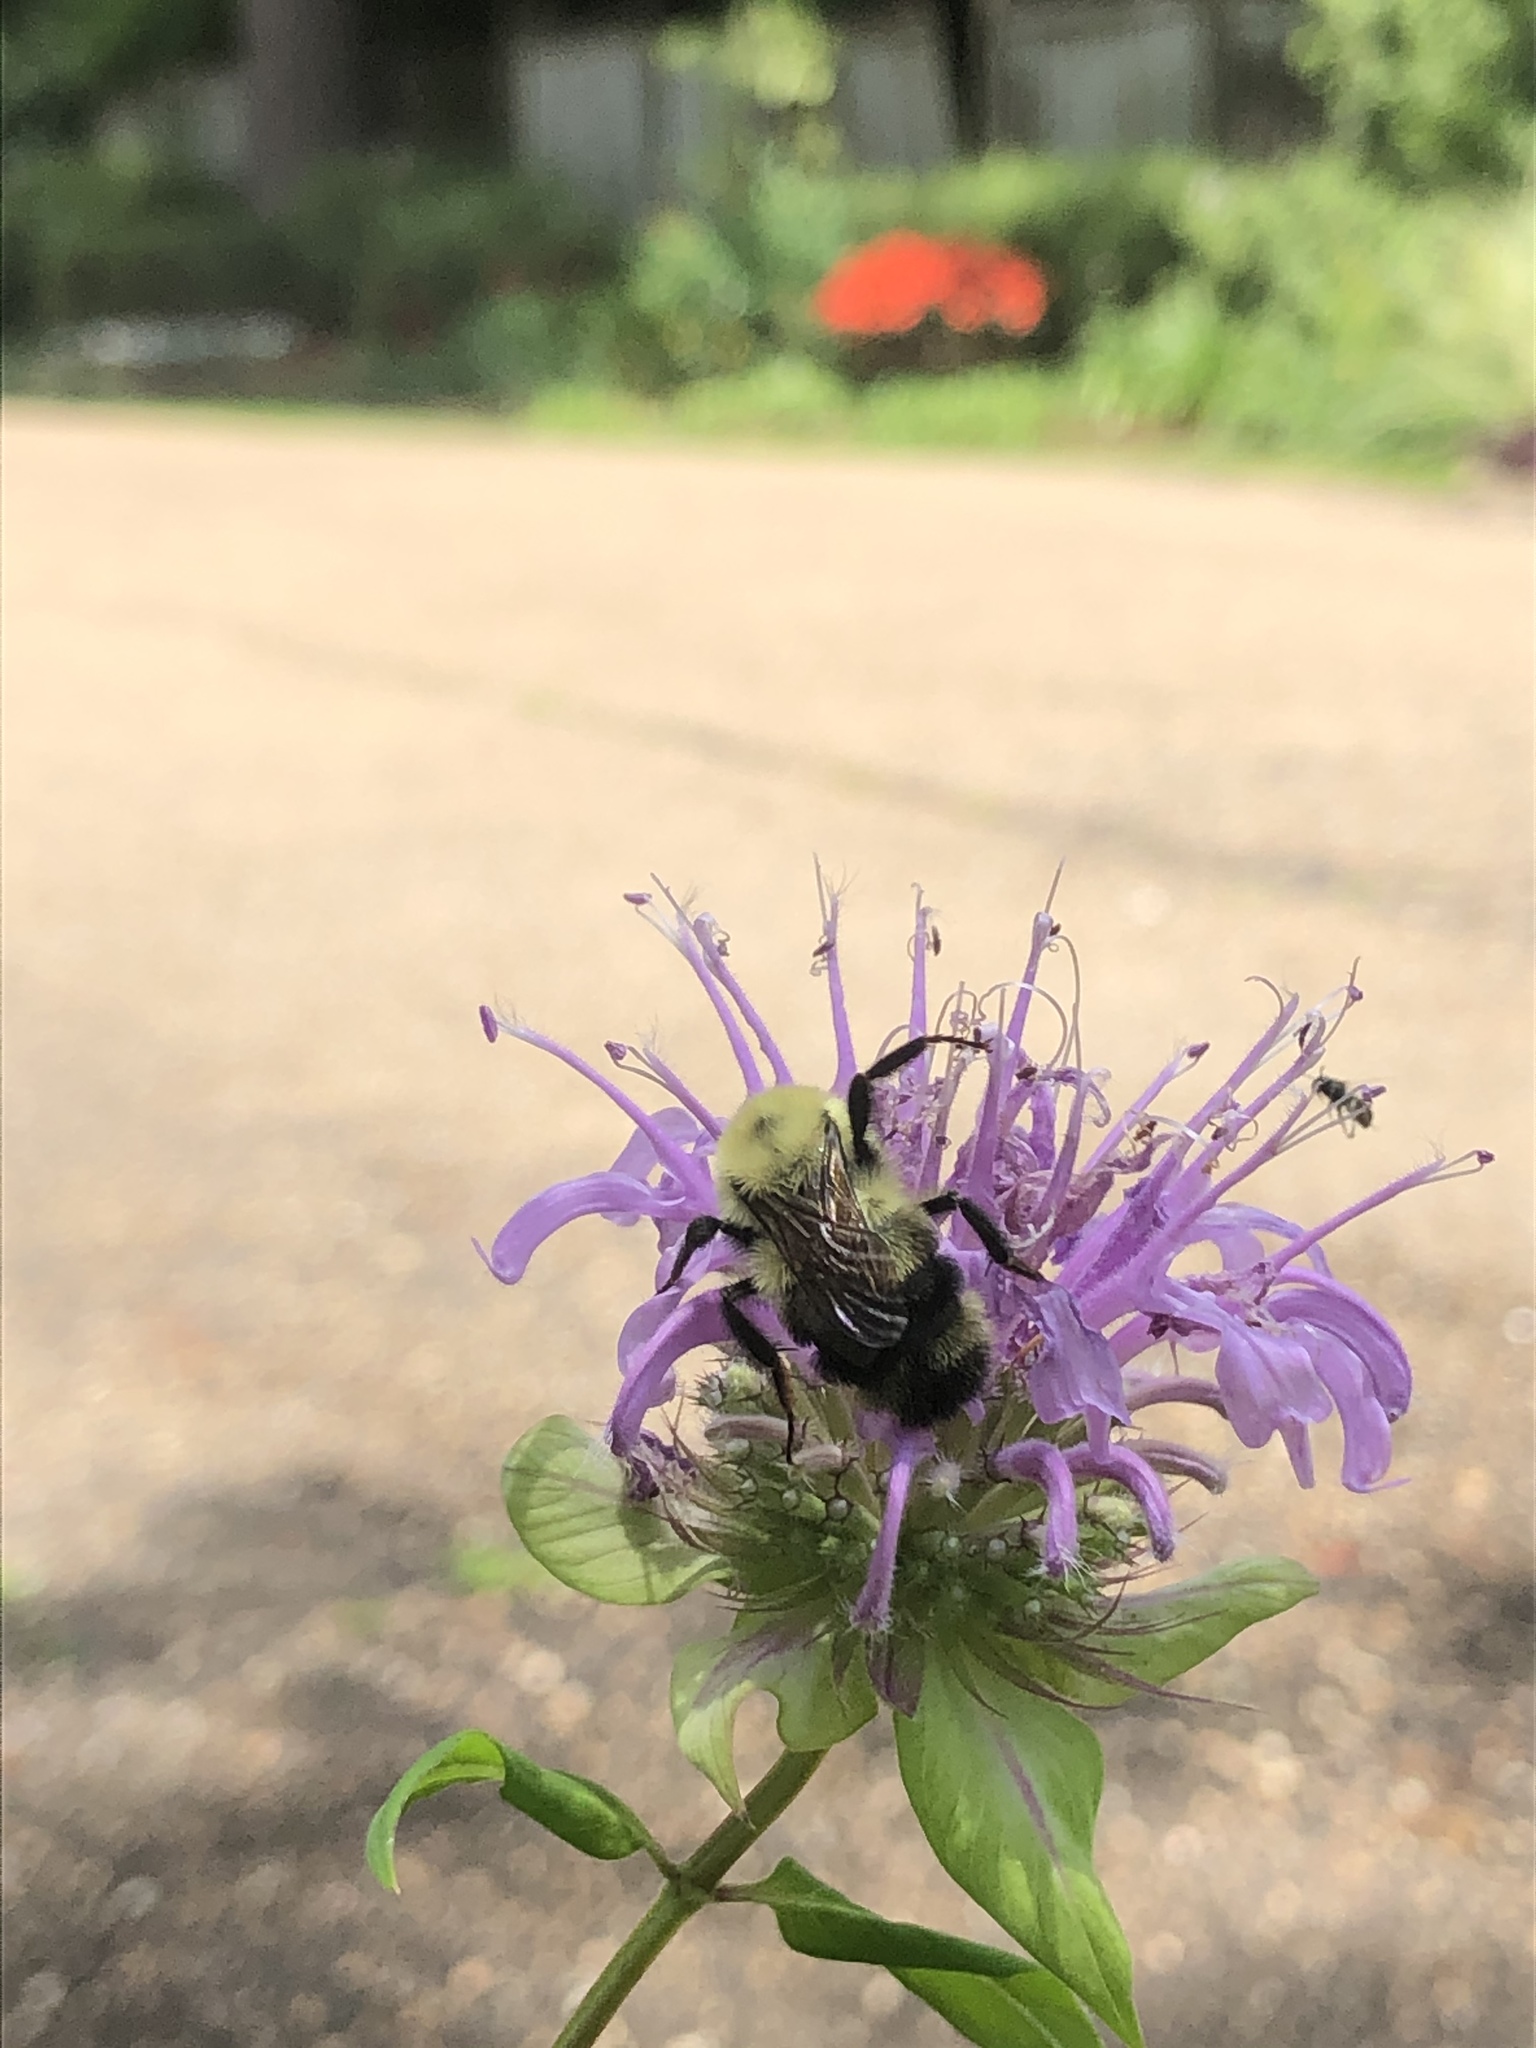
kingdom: Animalia
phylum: Arthropoda
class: Insecta
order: Hymenoptera
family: Apidae
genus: Bombus
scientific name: Bombus bimaculatus
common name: Two-spotted bumble bee
